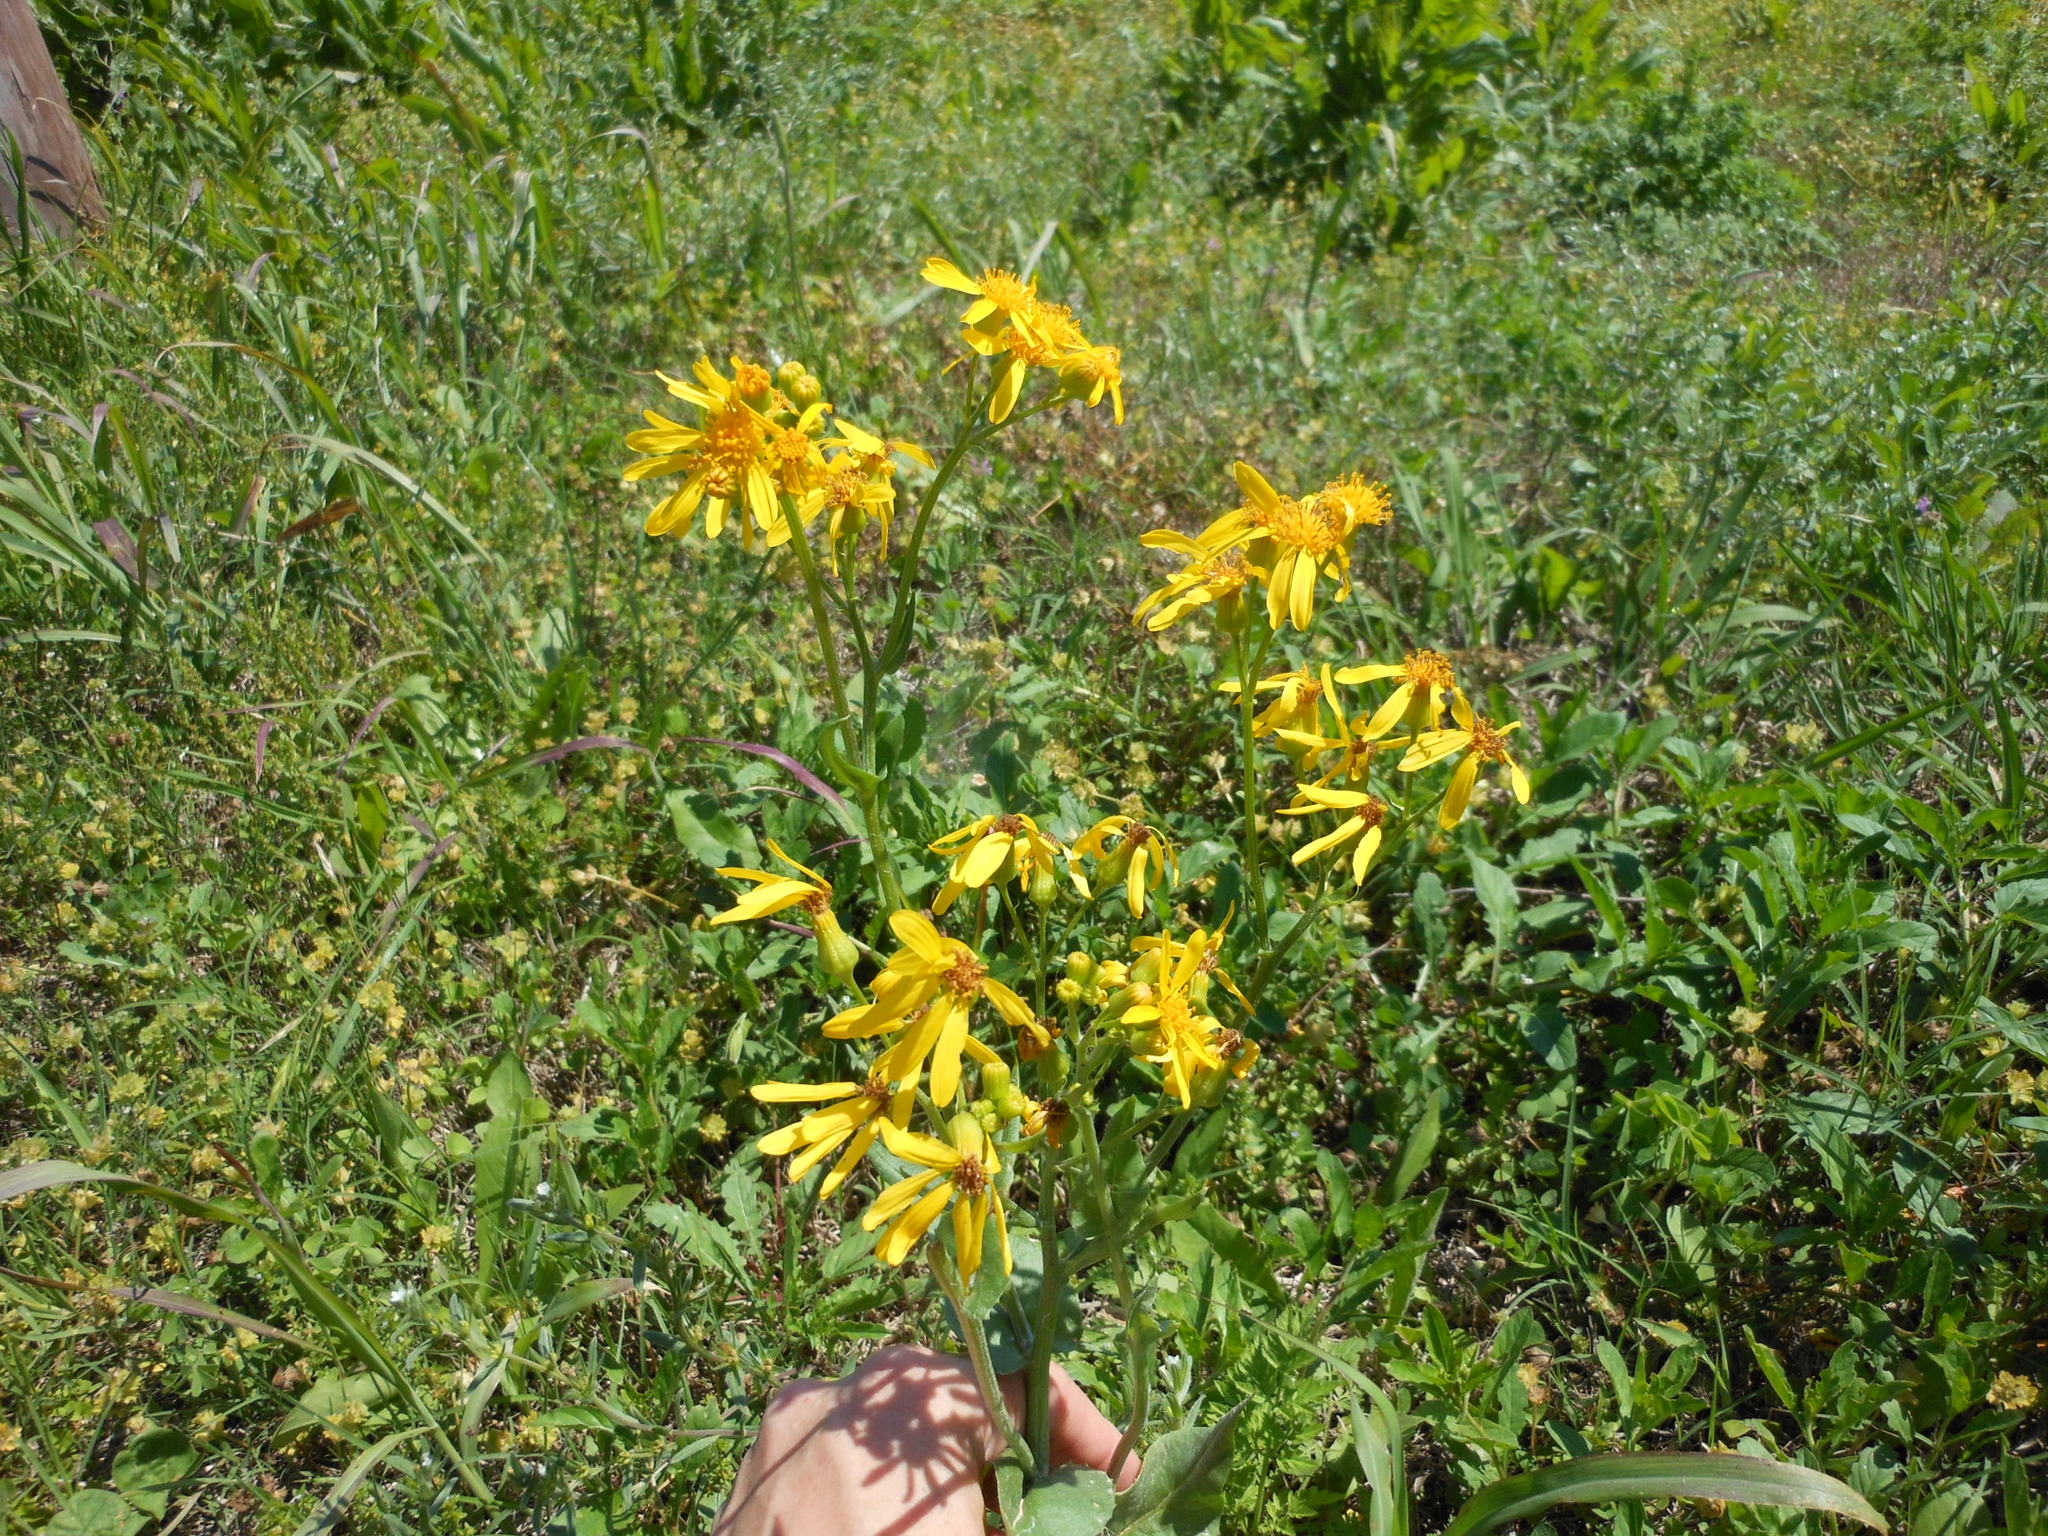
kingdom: Plantae
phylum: Tracheophyta
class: Magnoliopsida
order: Asterales
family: Asteraceae
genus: Senecio
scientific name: Senecio ampullaceus
